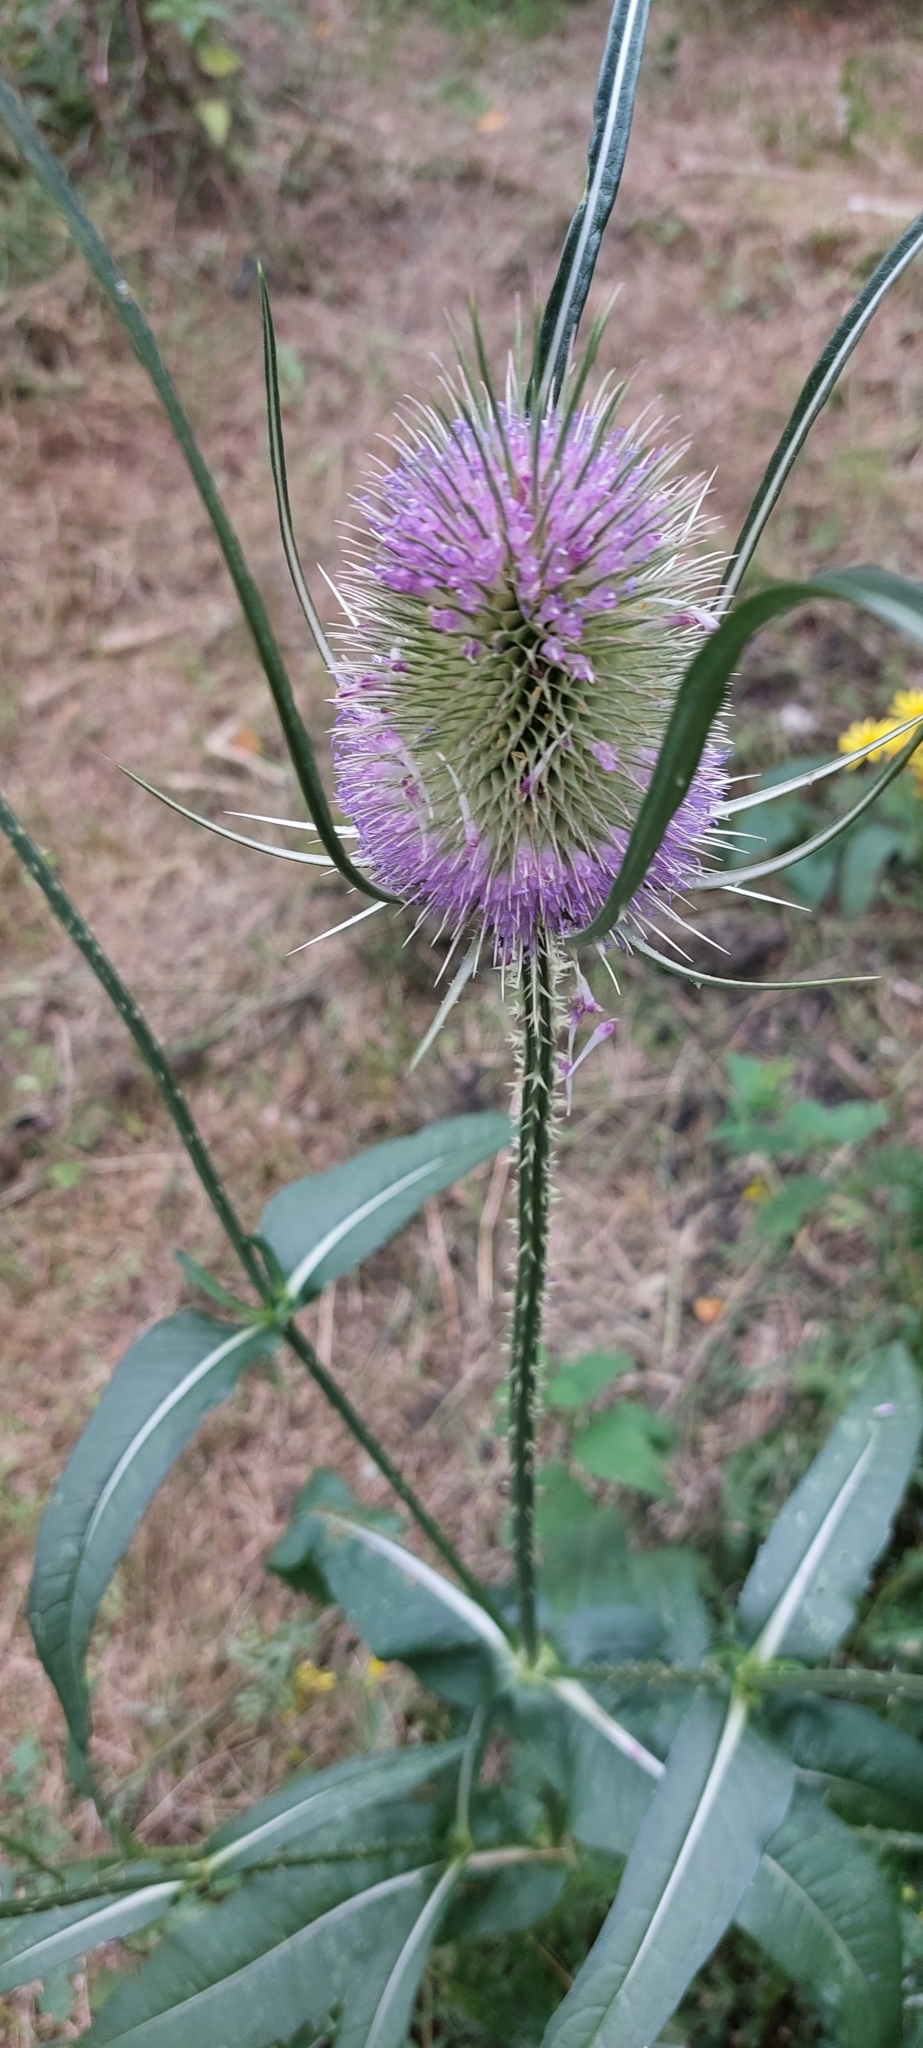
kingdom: Plantae
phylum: Tracheophyta
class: Magnoliopsida
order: Dipsacales
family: Caprifoliaceae
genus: Dipsacus
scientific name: Dipsacus fullonum
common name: Teasel
